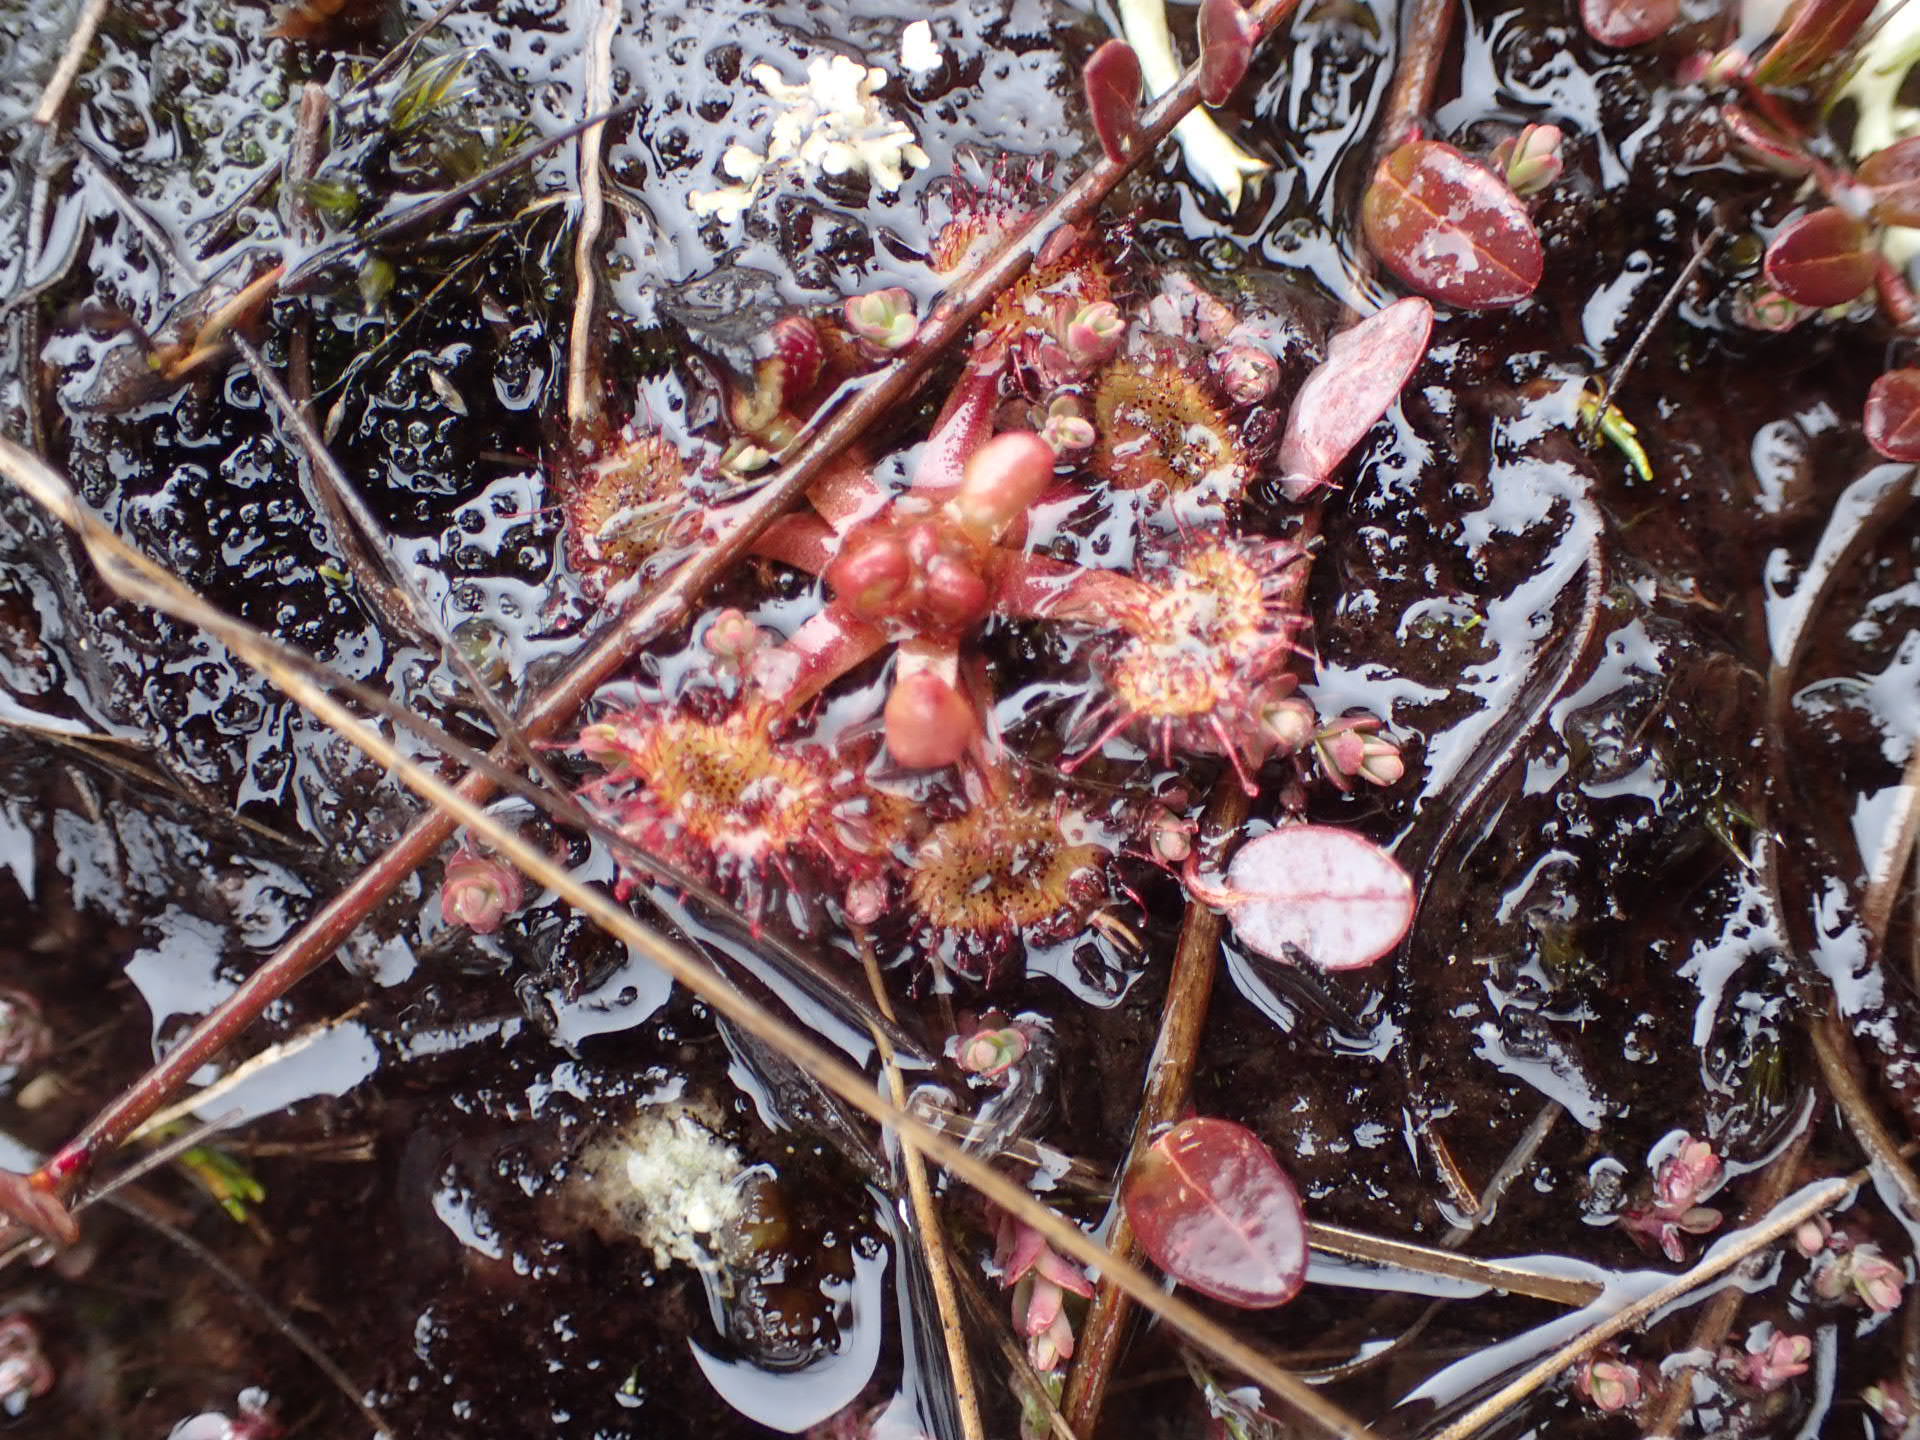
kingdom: Plantae
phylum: Tracheophyta
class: Magnoliopsida
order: Caryophyllales
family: Droseraceae
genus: Drosera
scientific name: Drosera rotundifolia
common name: Round-leaved sundew
